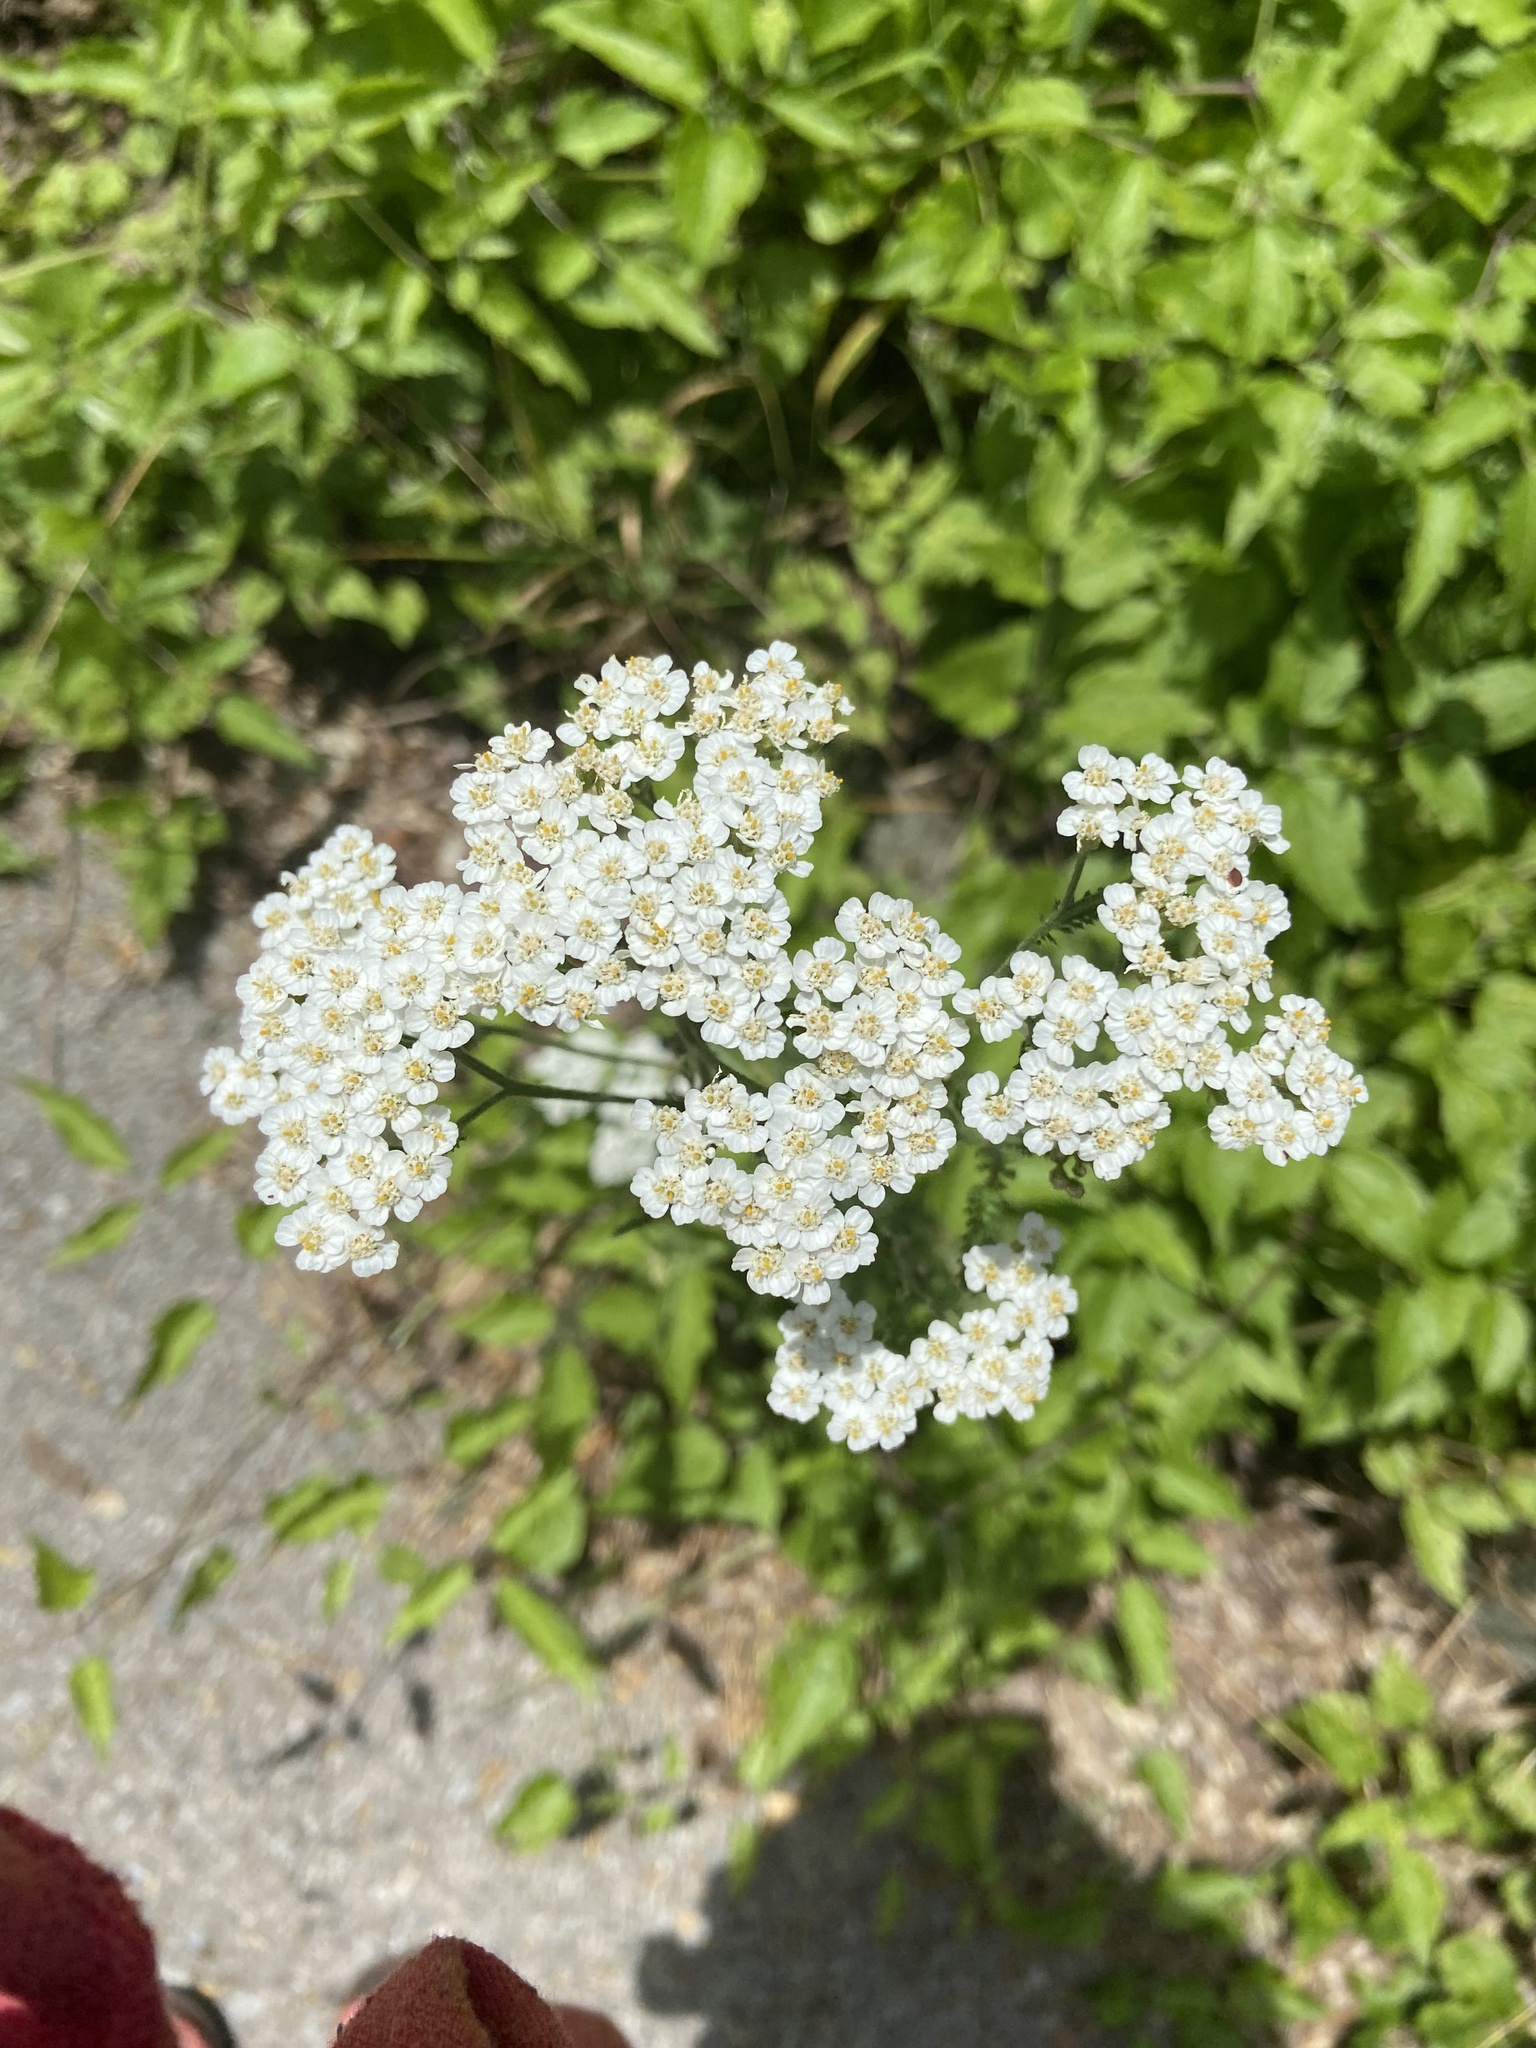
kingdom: Plantae
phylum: Tracheophyta
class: Magnoliopsida
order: Asterales
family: Asteraceae
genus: Achillea
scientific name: Achillea millefolium
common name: Yarrow
